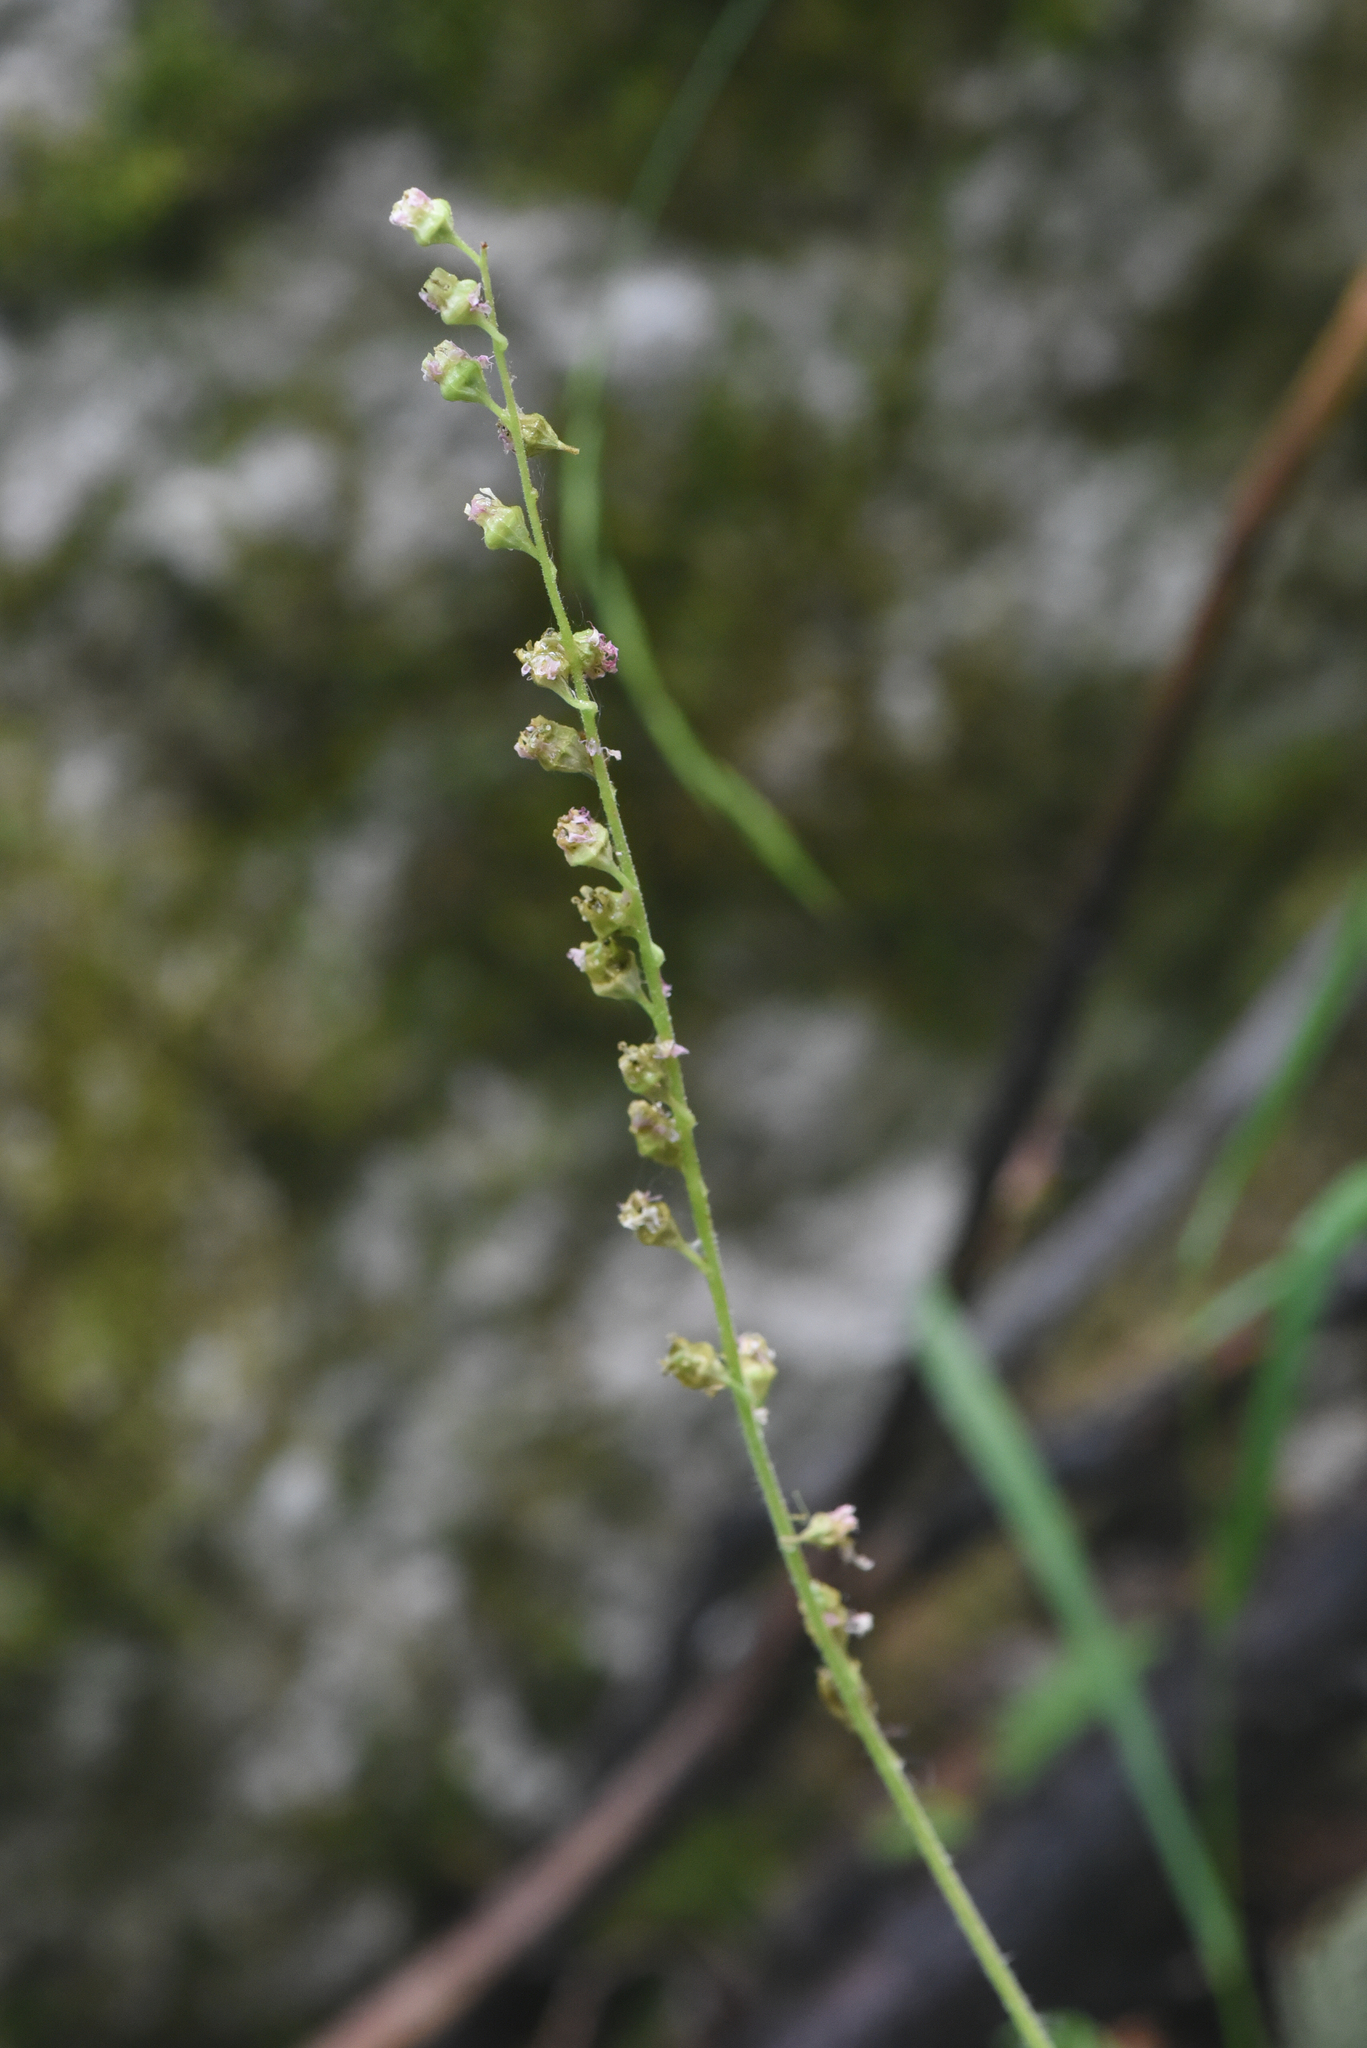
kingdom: Plantae
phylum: Tracheophyta
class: Magnoliopsida
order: Saxifragales
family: Saxifragaceae
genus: Tellima
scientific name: Tellima grandiflora
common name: Fringecups
